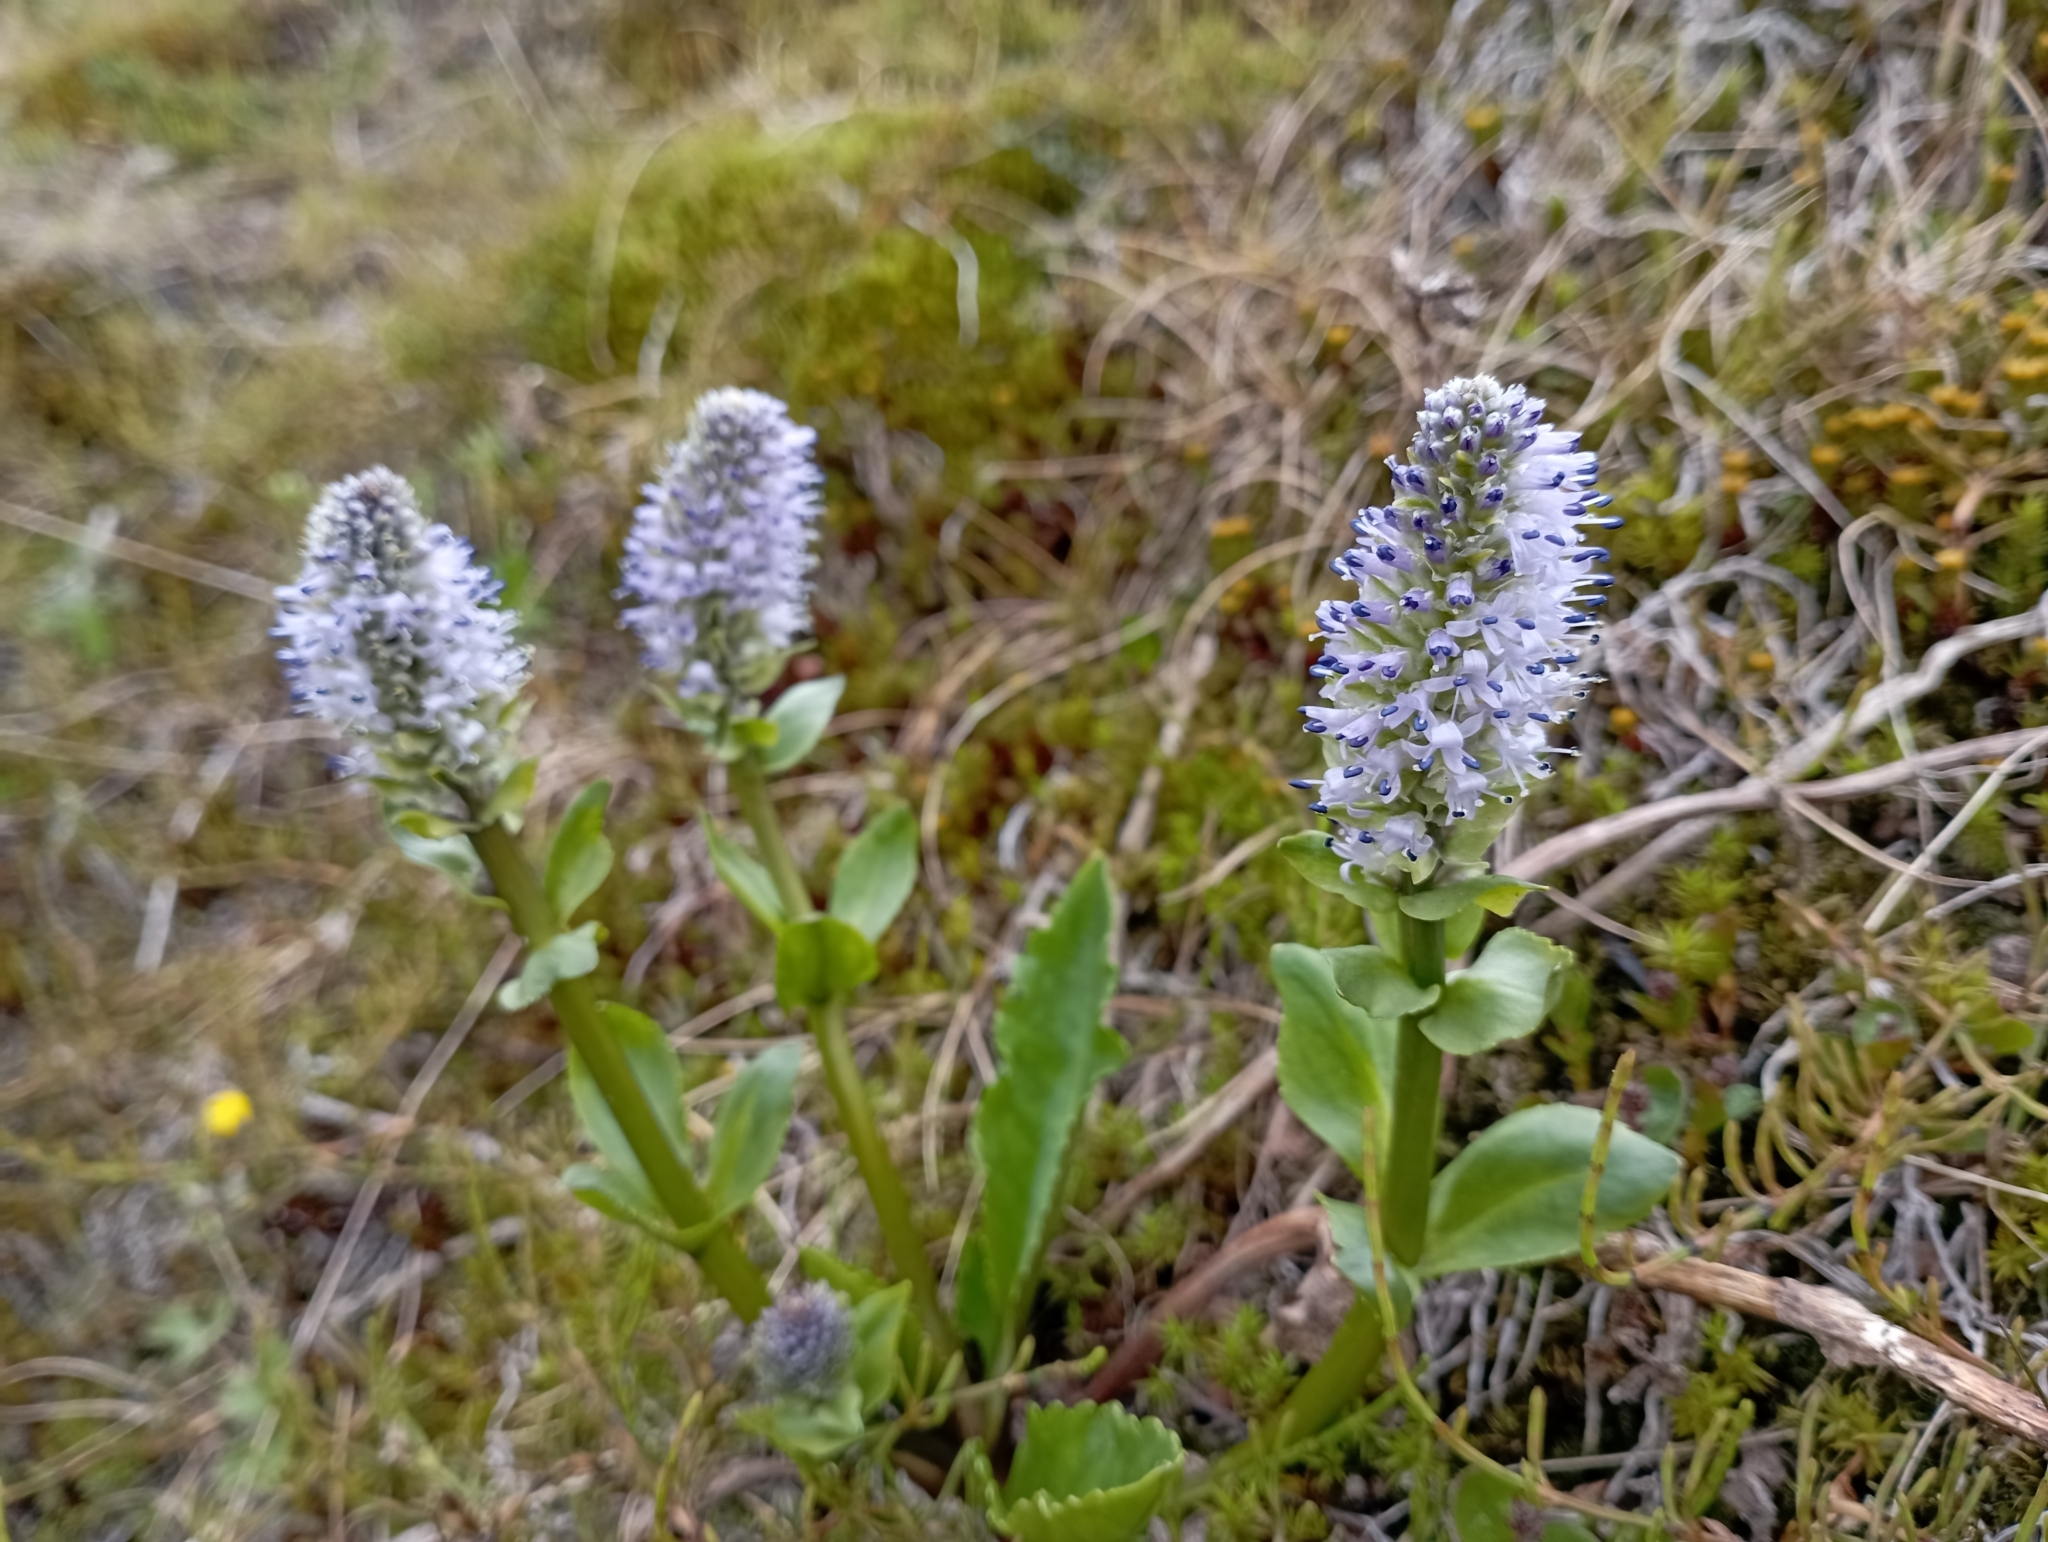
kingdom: Plantae
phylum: Tracheophyta
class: Magnoliopsida
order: Lamiales
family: Plantaginaceae
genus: Lagotis
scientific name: Lagotis glauca
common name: Glaucous weaselsnout
